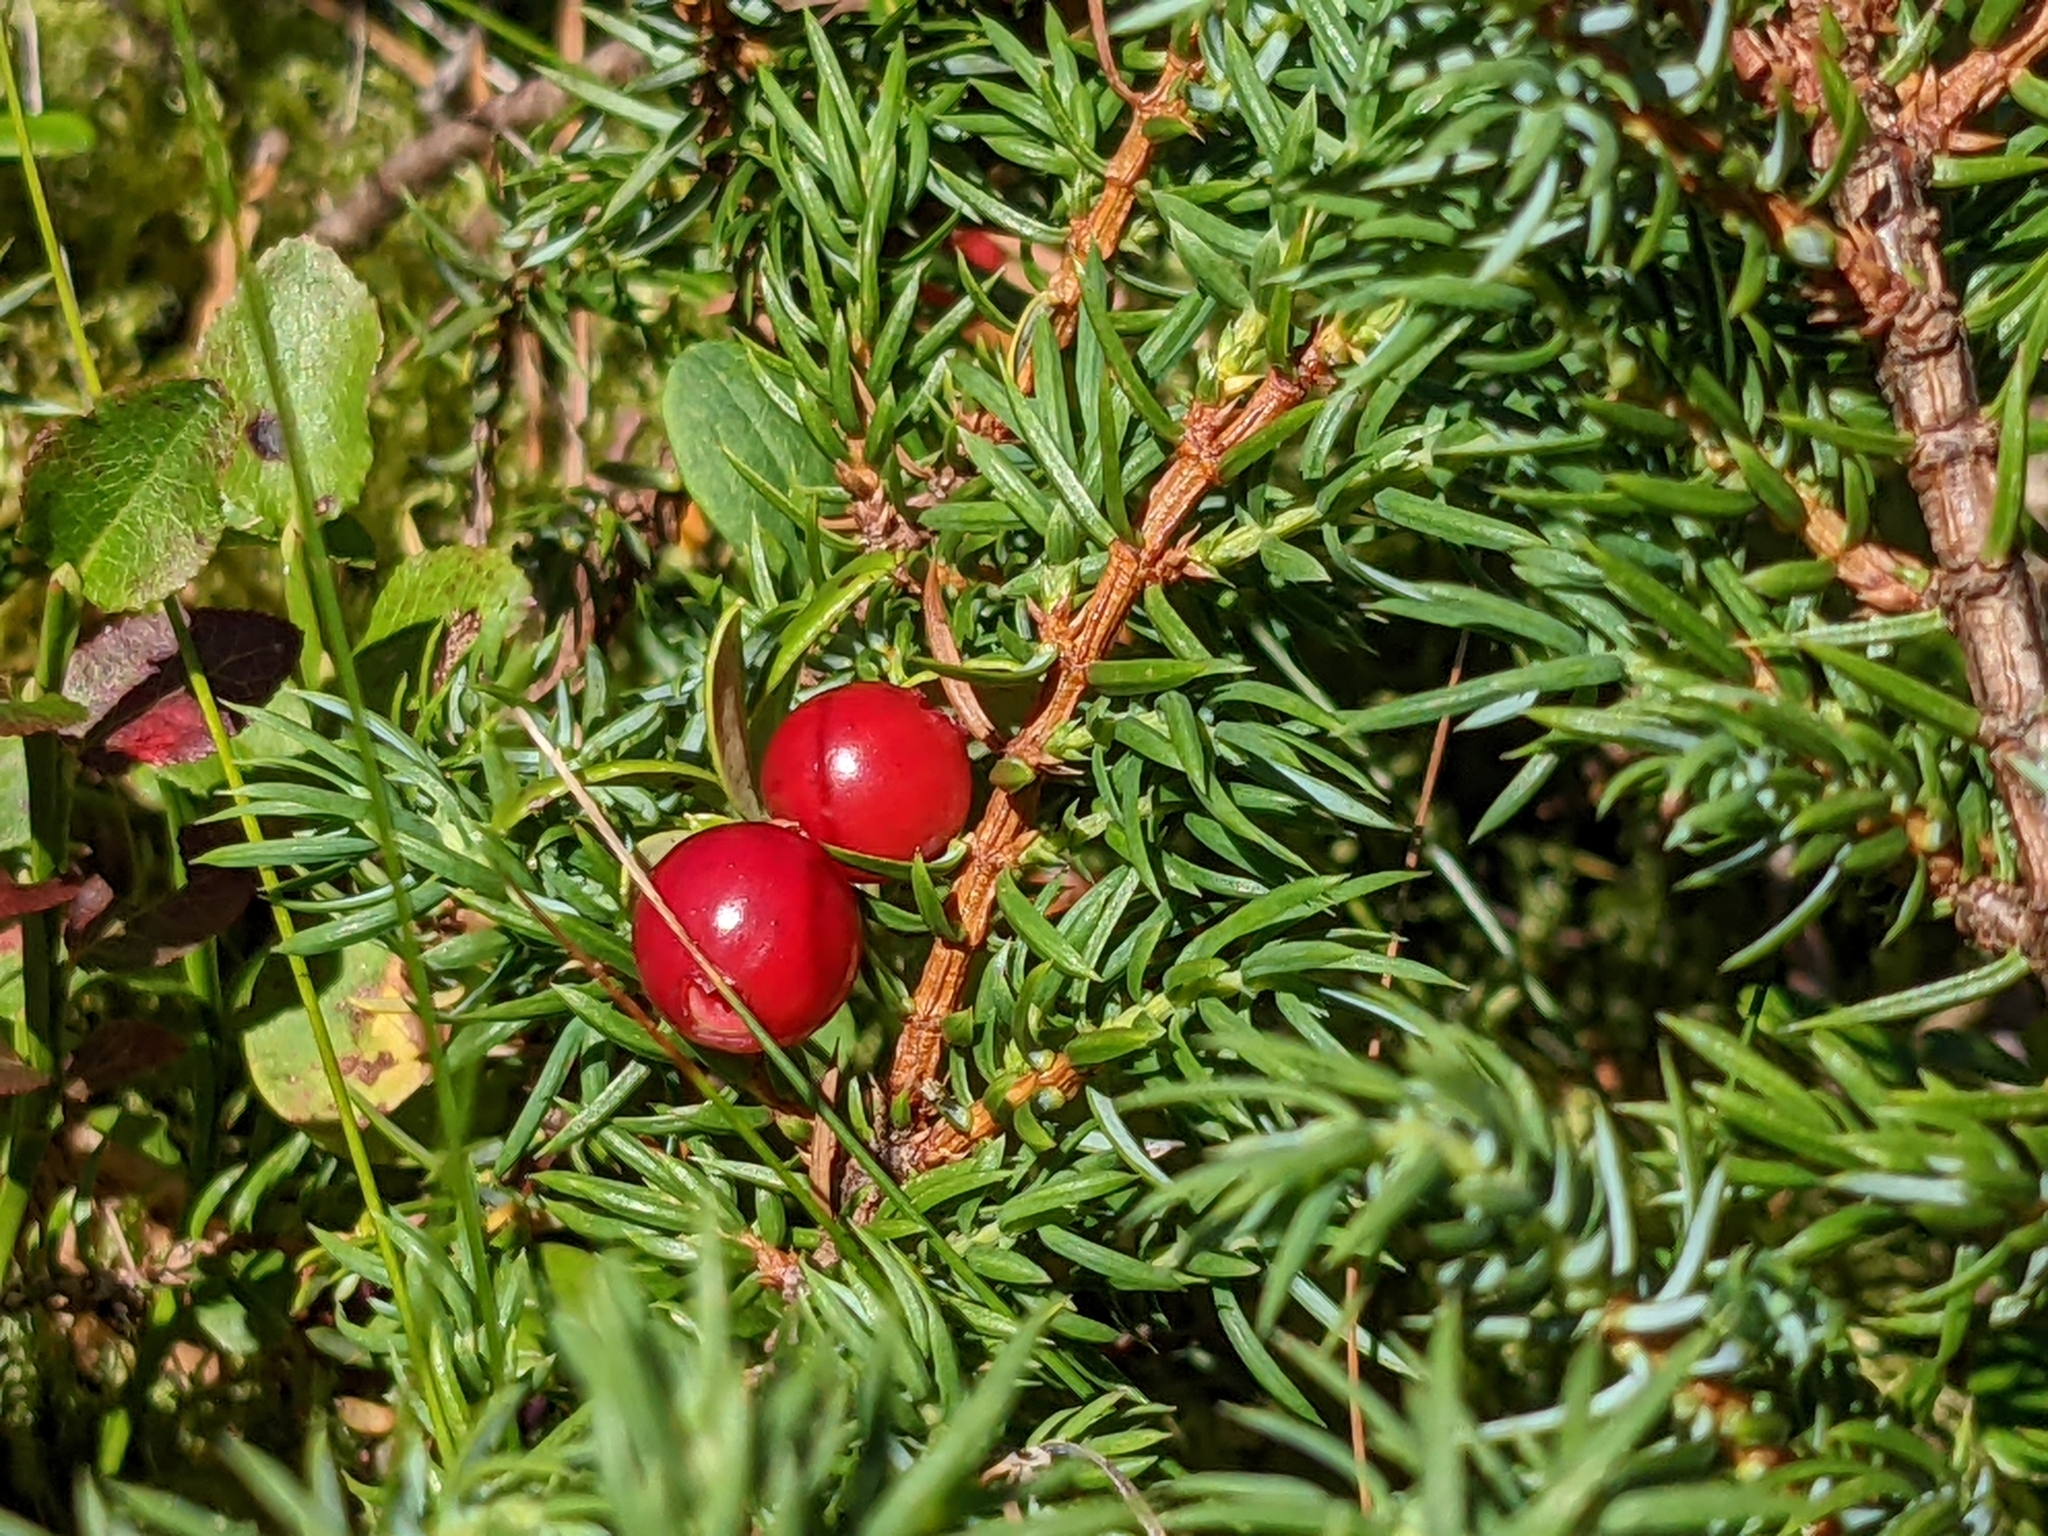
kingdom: Plantae
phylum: Tracheophyta
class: Pinopsida
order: Pinales
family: Cupressaceae
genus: Juniperus
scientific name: Juniperus communis
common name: Common juniper
